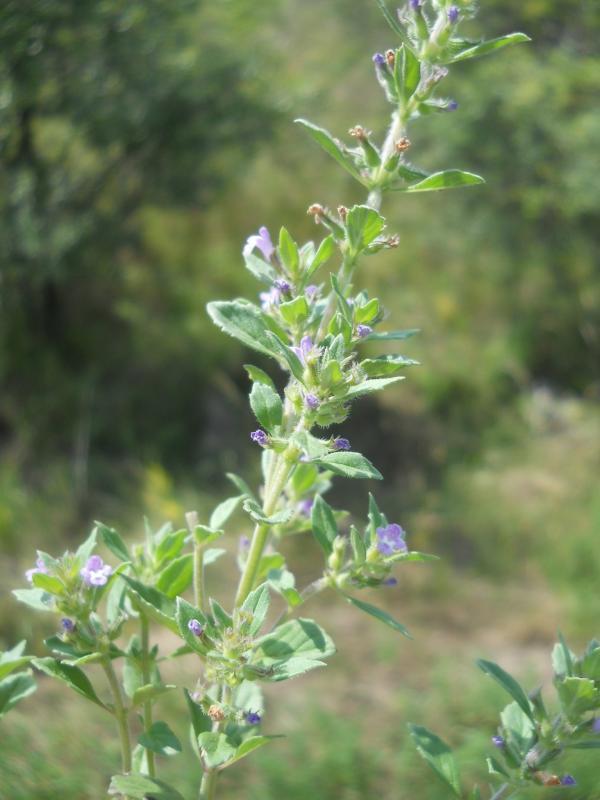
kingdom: Plantae
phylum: Tracheophyta
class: Magnoliopsida
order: Lamiales
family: Lamiaceae
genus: Clinopodium
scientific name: Clinopodium acinos
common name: Basil thyme
